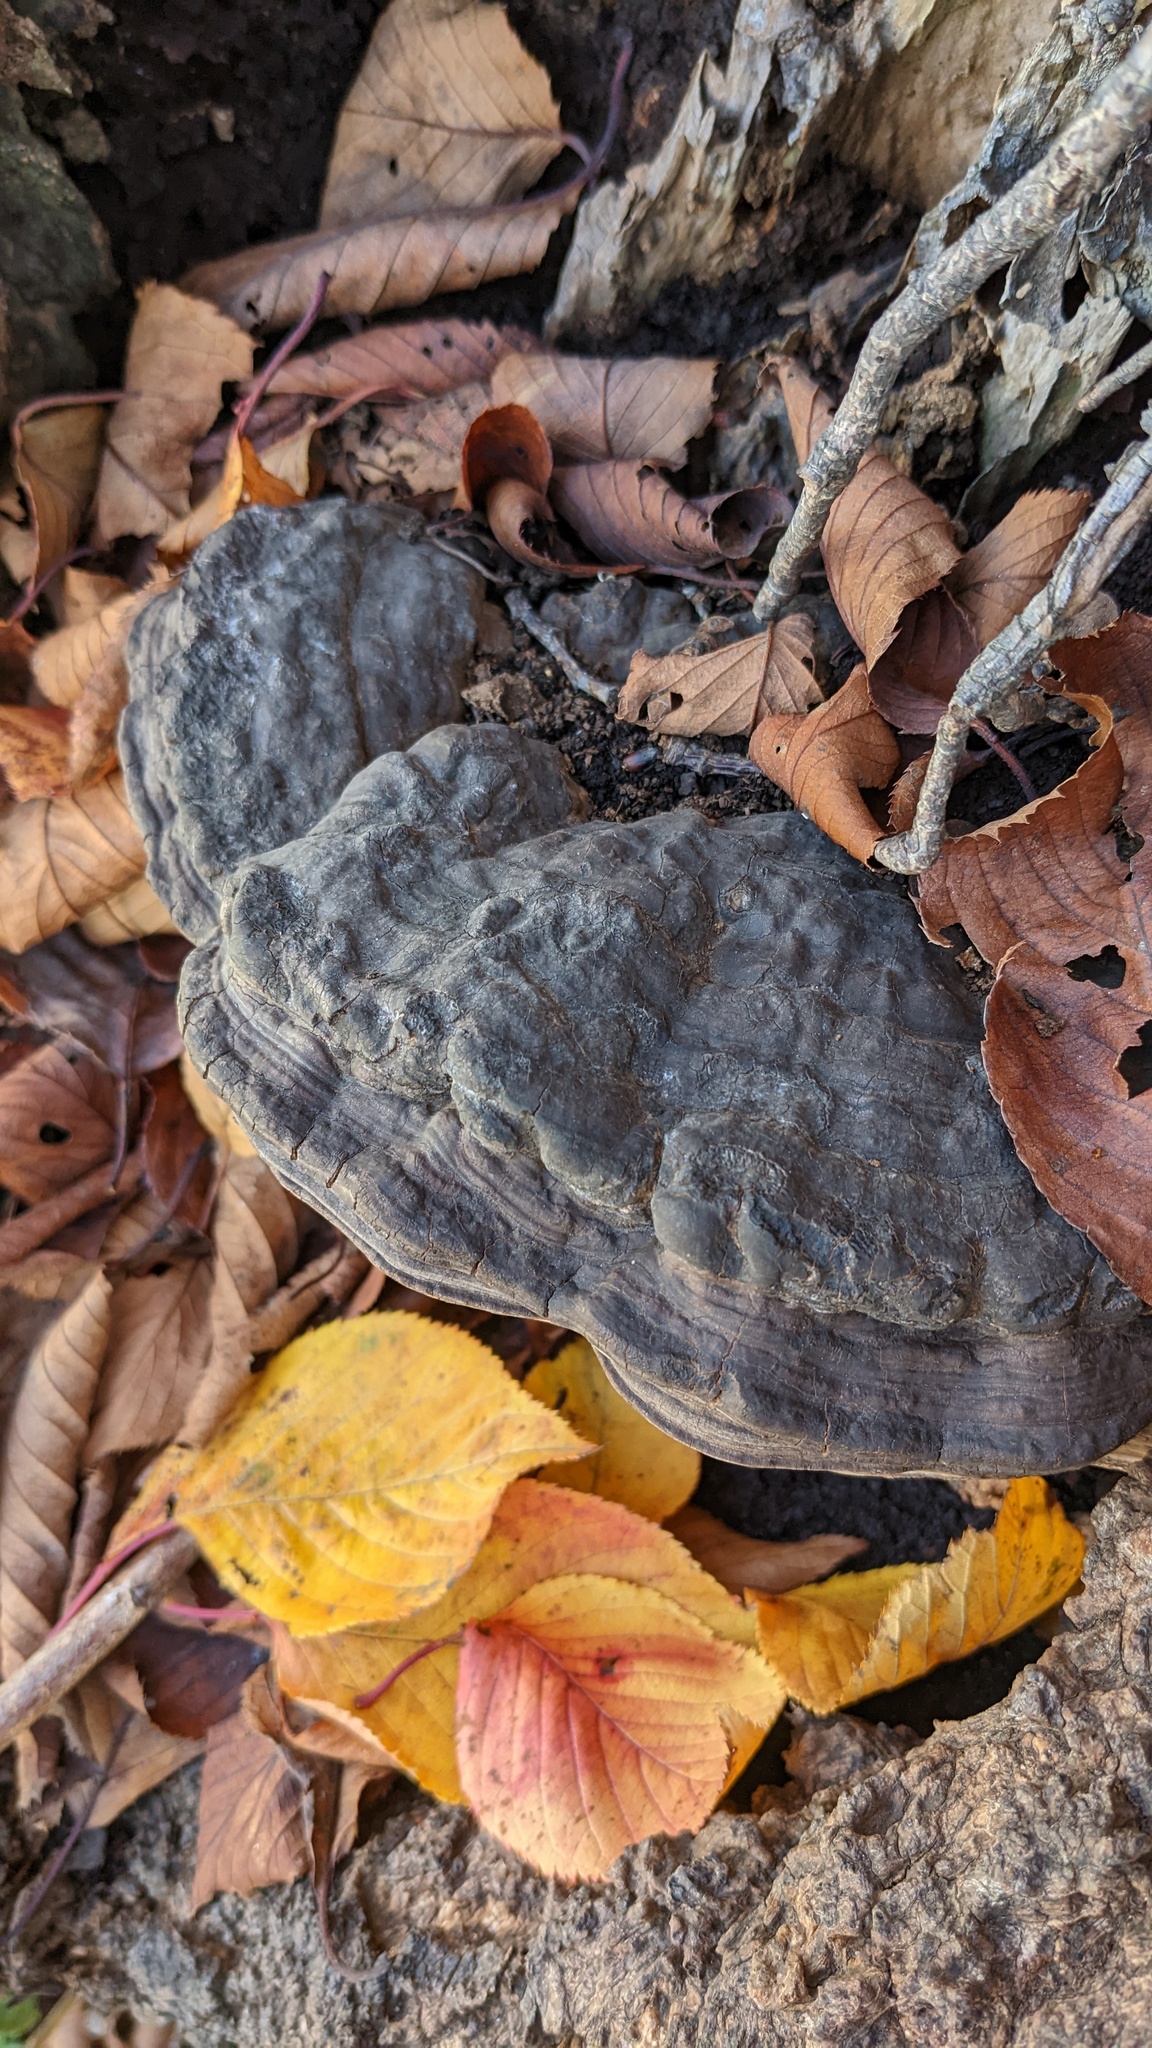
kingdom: Fungi
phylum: Basidiomycota
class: Agaricomycetes
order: Polyporales
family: Polyporaceae
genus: Ganoderma
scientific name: Ganoderma applanatum
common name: Artist's bracket
